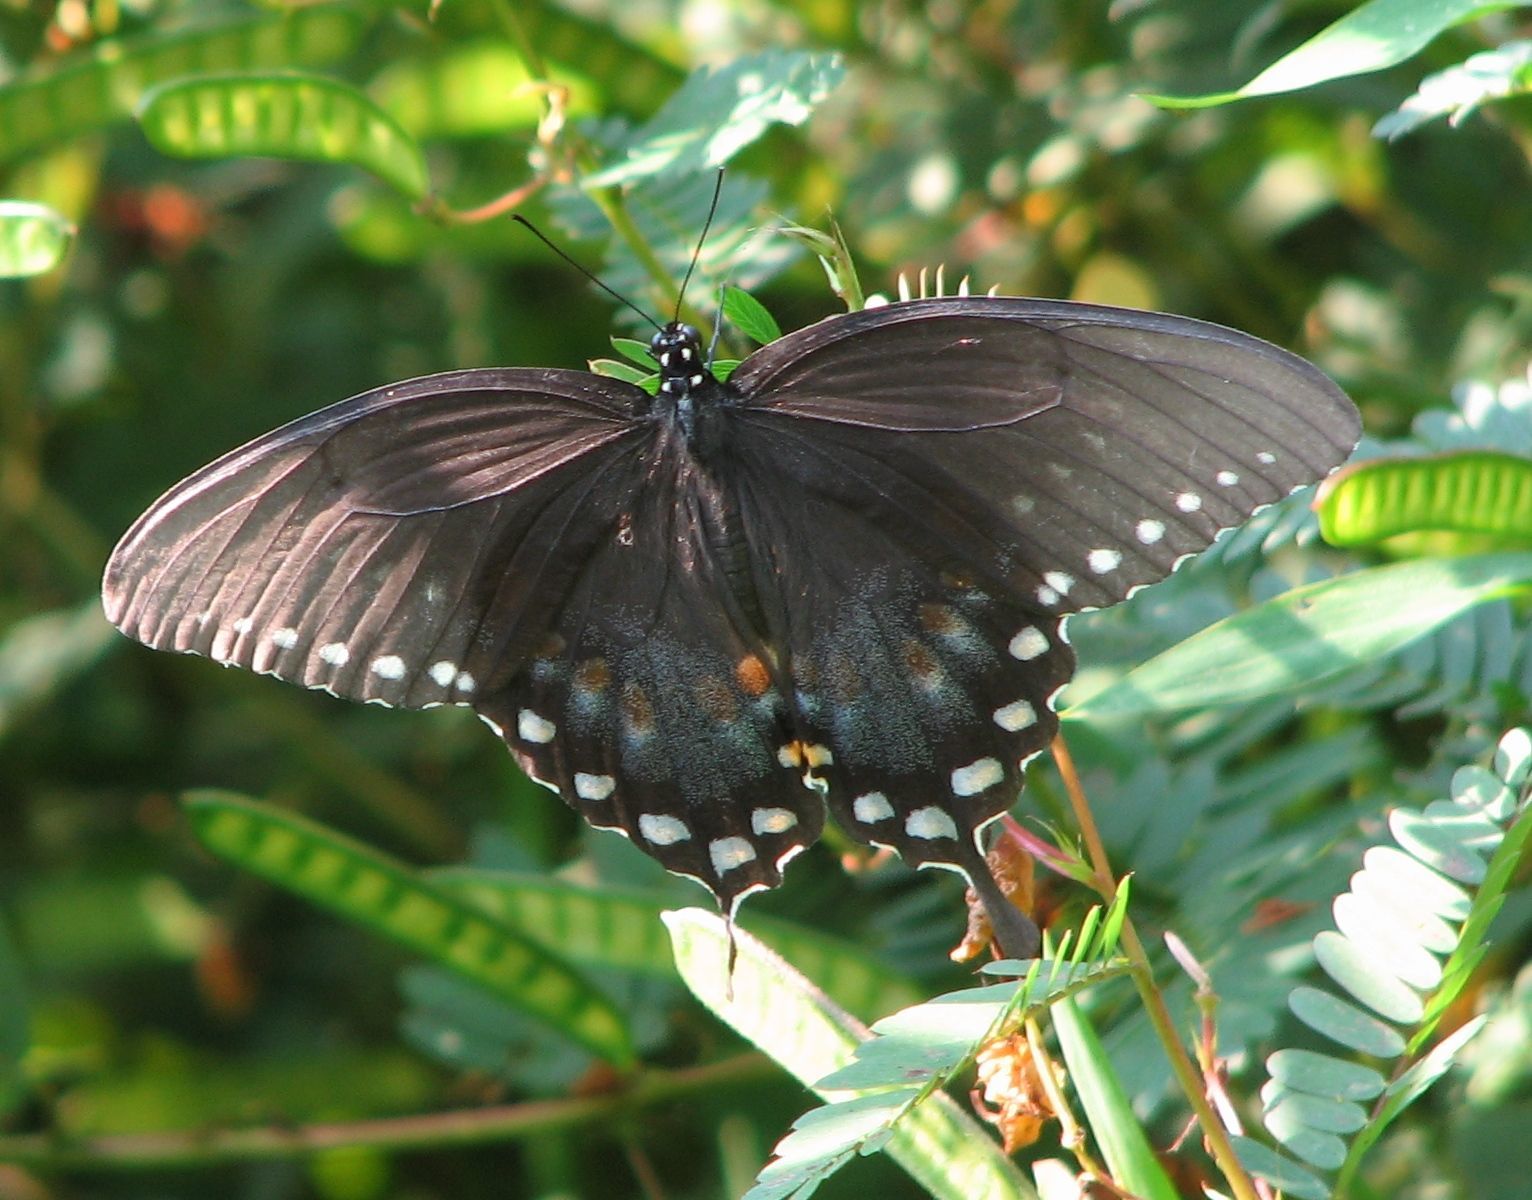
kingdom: Animalia
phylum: Arthropoda
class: Insecta
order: Lepidoptera
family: Papilionidae
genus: Papilio
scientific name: Papilio troilus
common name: Spicebush swallowtail
